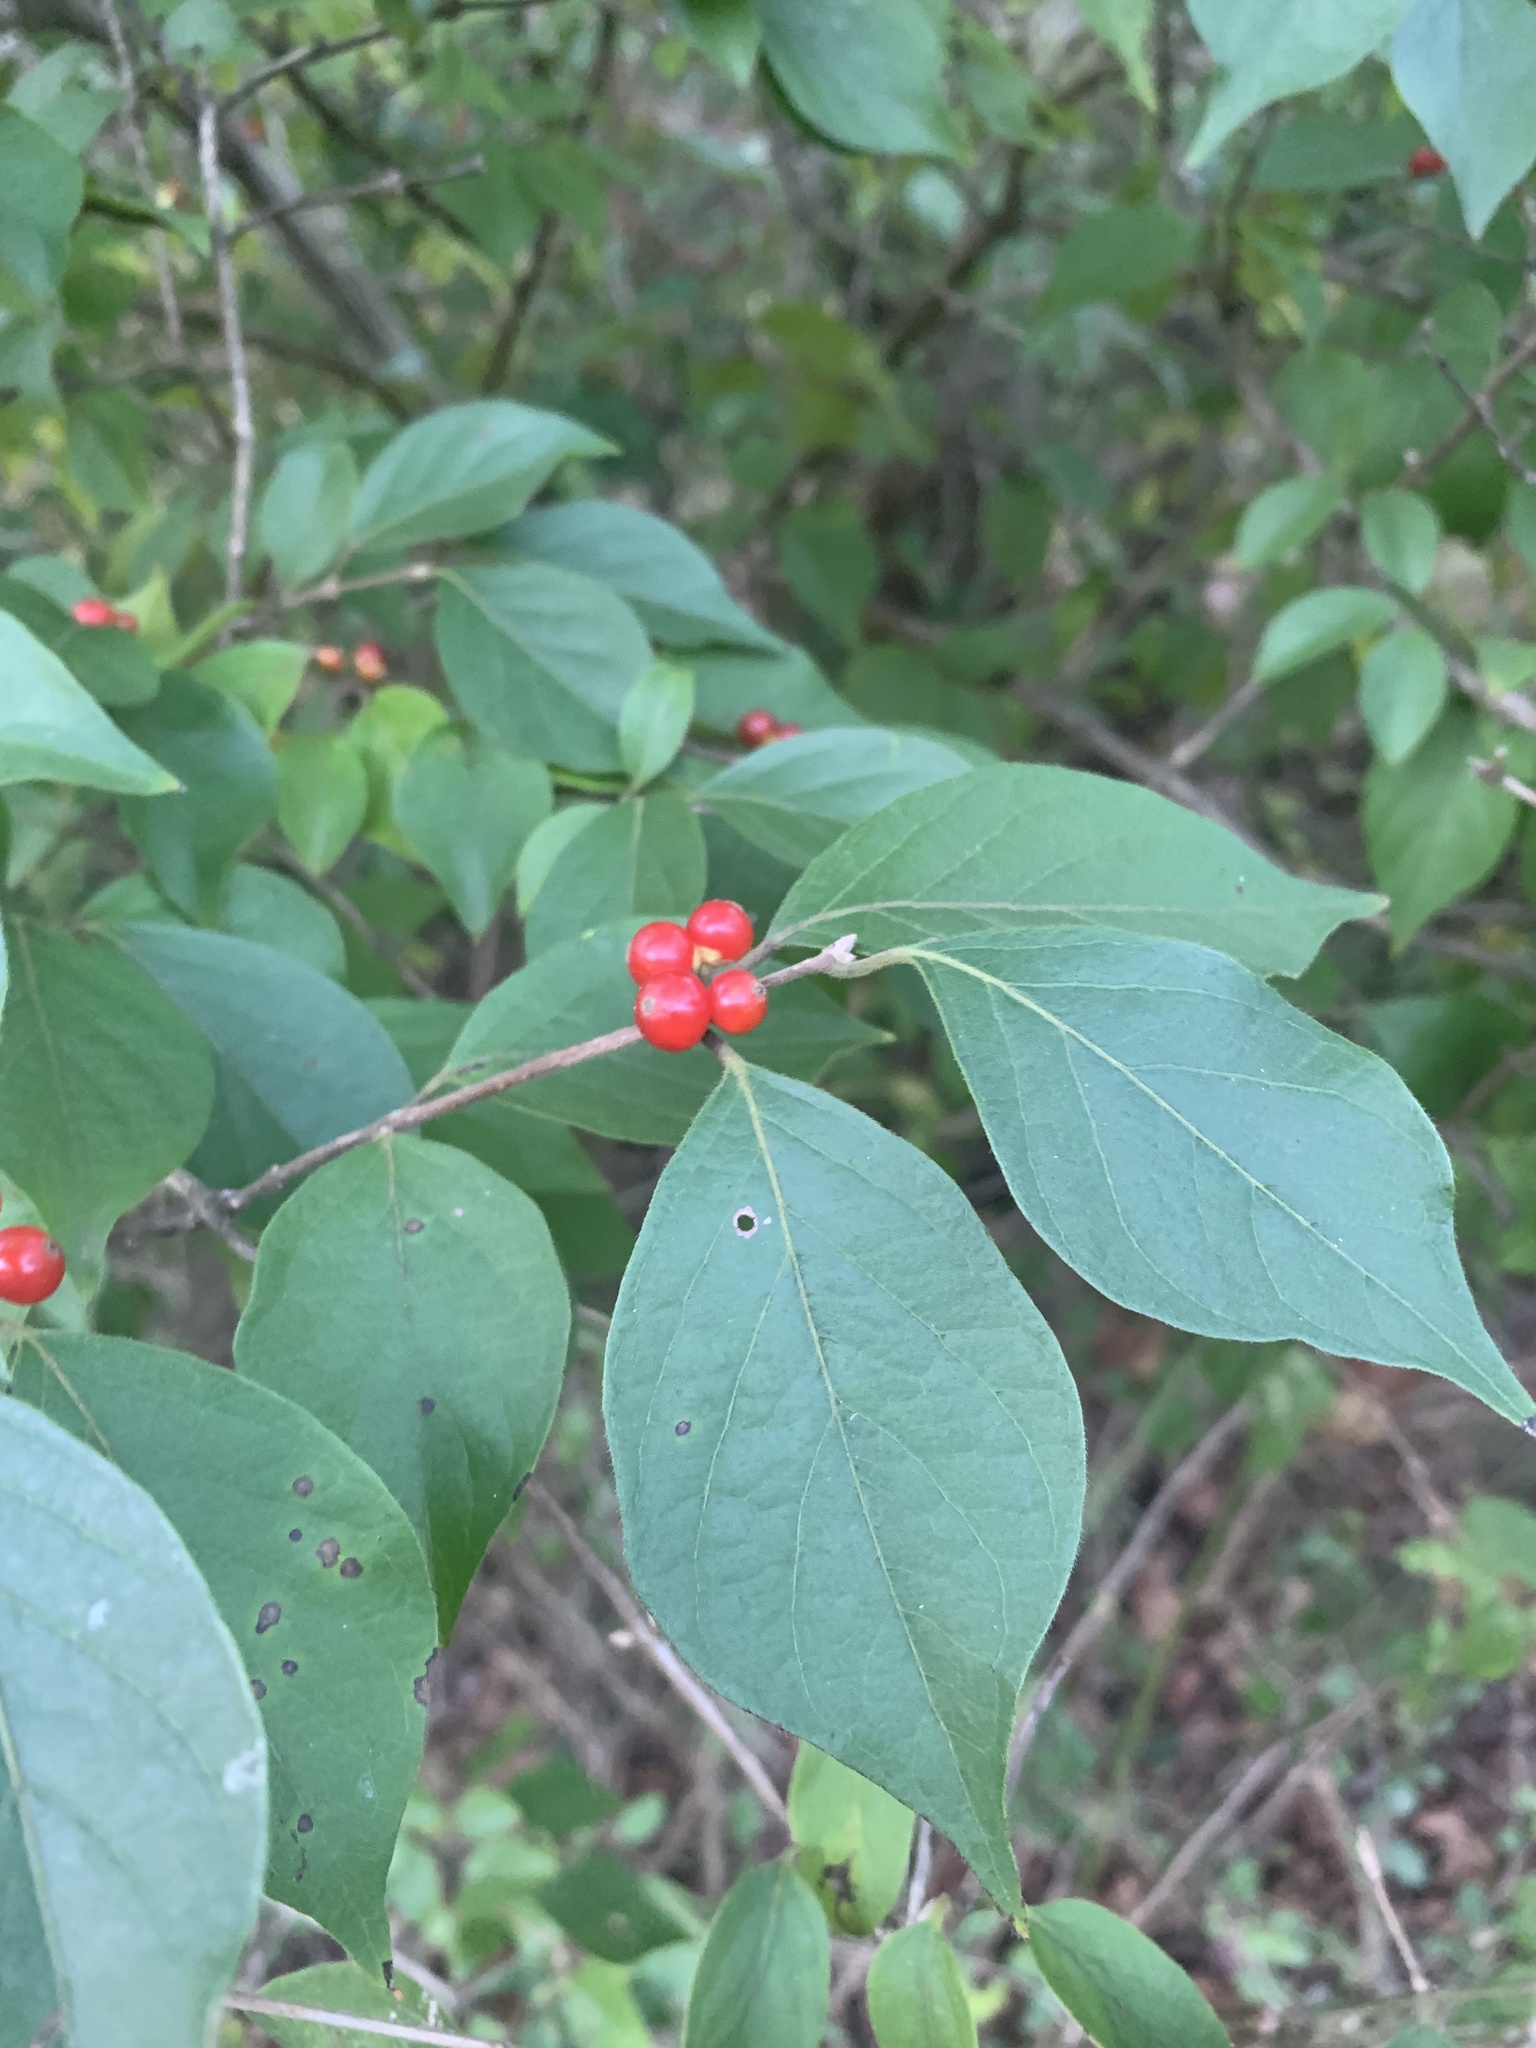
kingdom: Plantae
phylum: Tracheophyta
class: Magnoliopsida
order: Dipsacales
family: Caprifoliaceae
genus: Lonicera
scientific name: Lonicera maackii
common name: Amur honeysuckle
